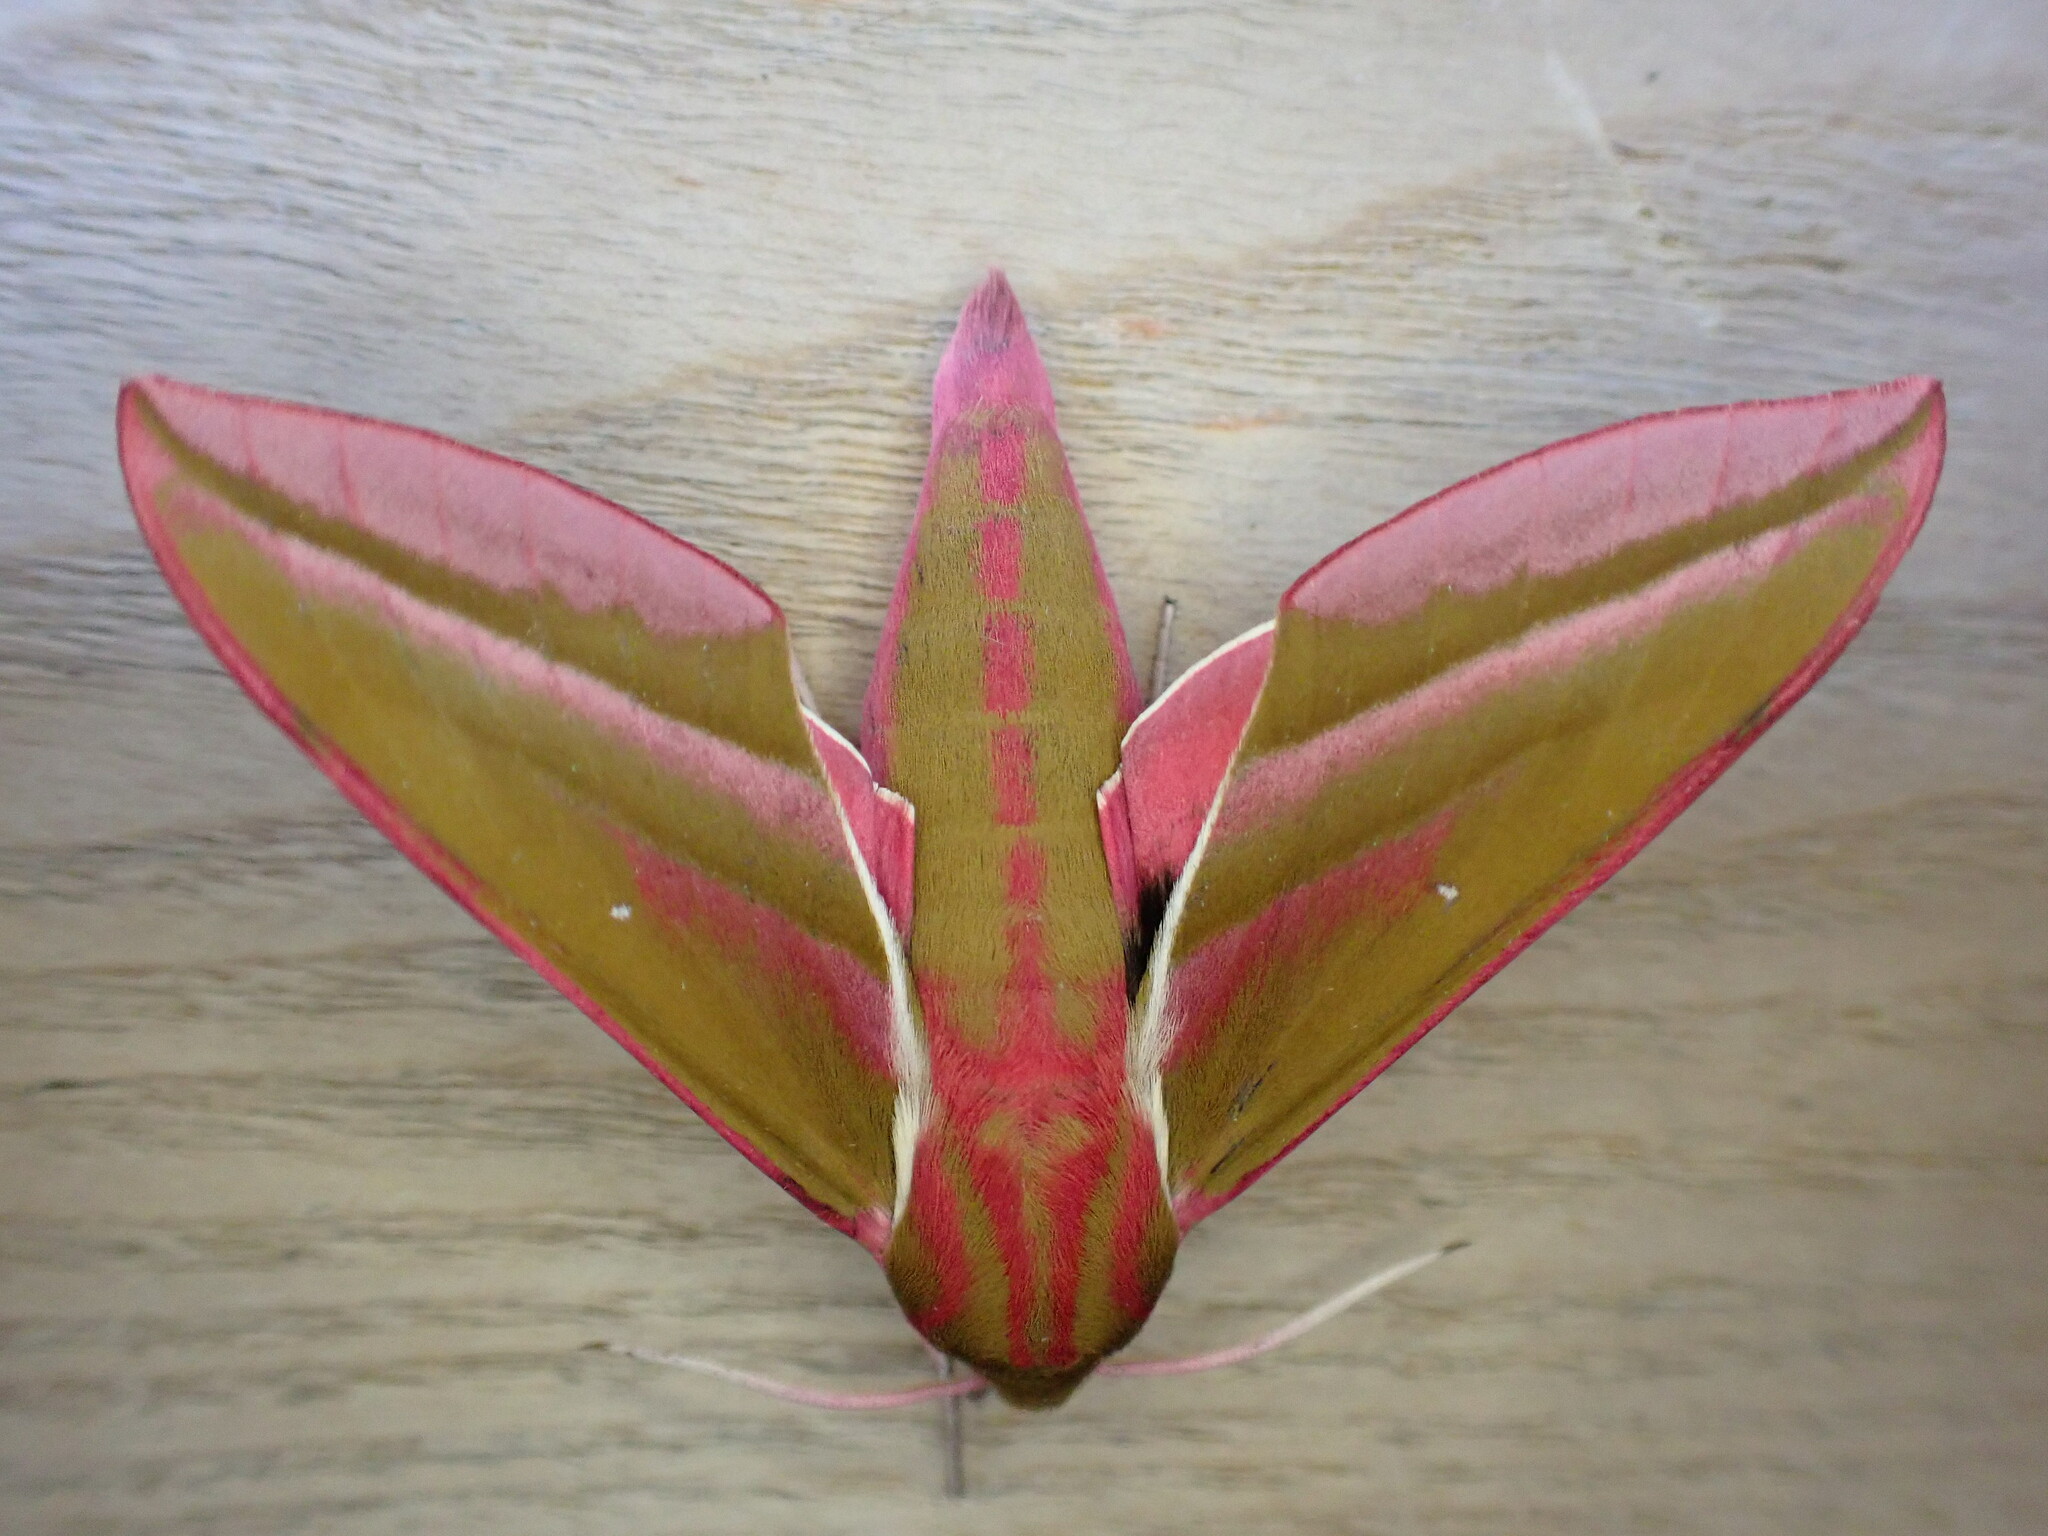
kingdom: Animalia
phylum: Arthropoda
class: Insecta
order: Lepidoptera
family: Sphingidae
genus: Deilephila
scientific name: Deilephila elpenor
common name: Elephant hawk-moth
